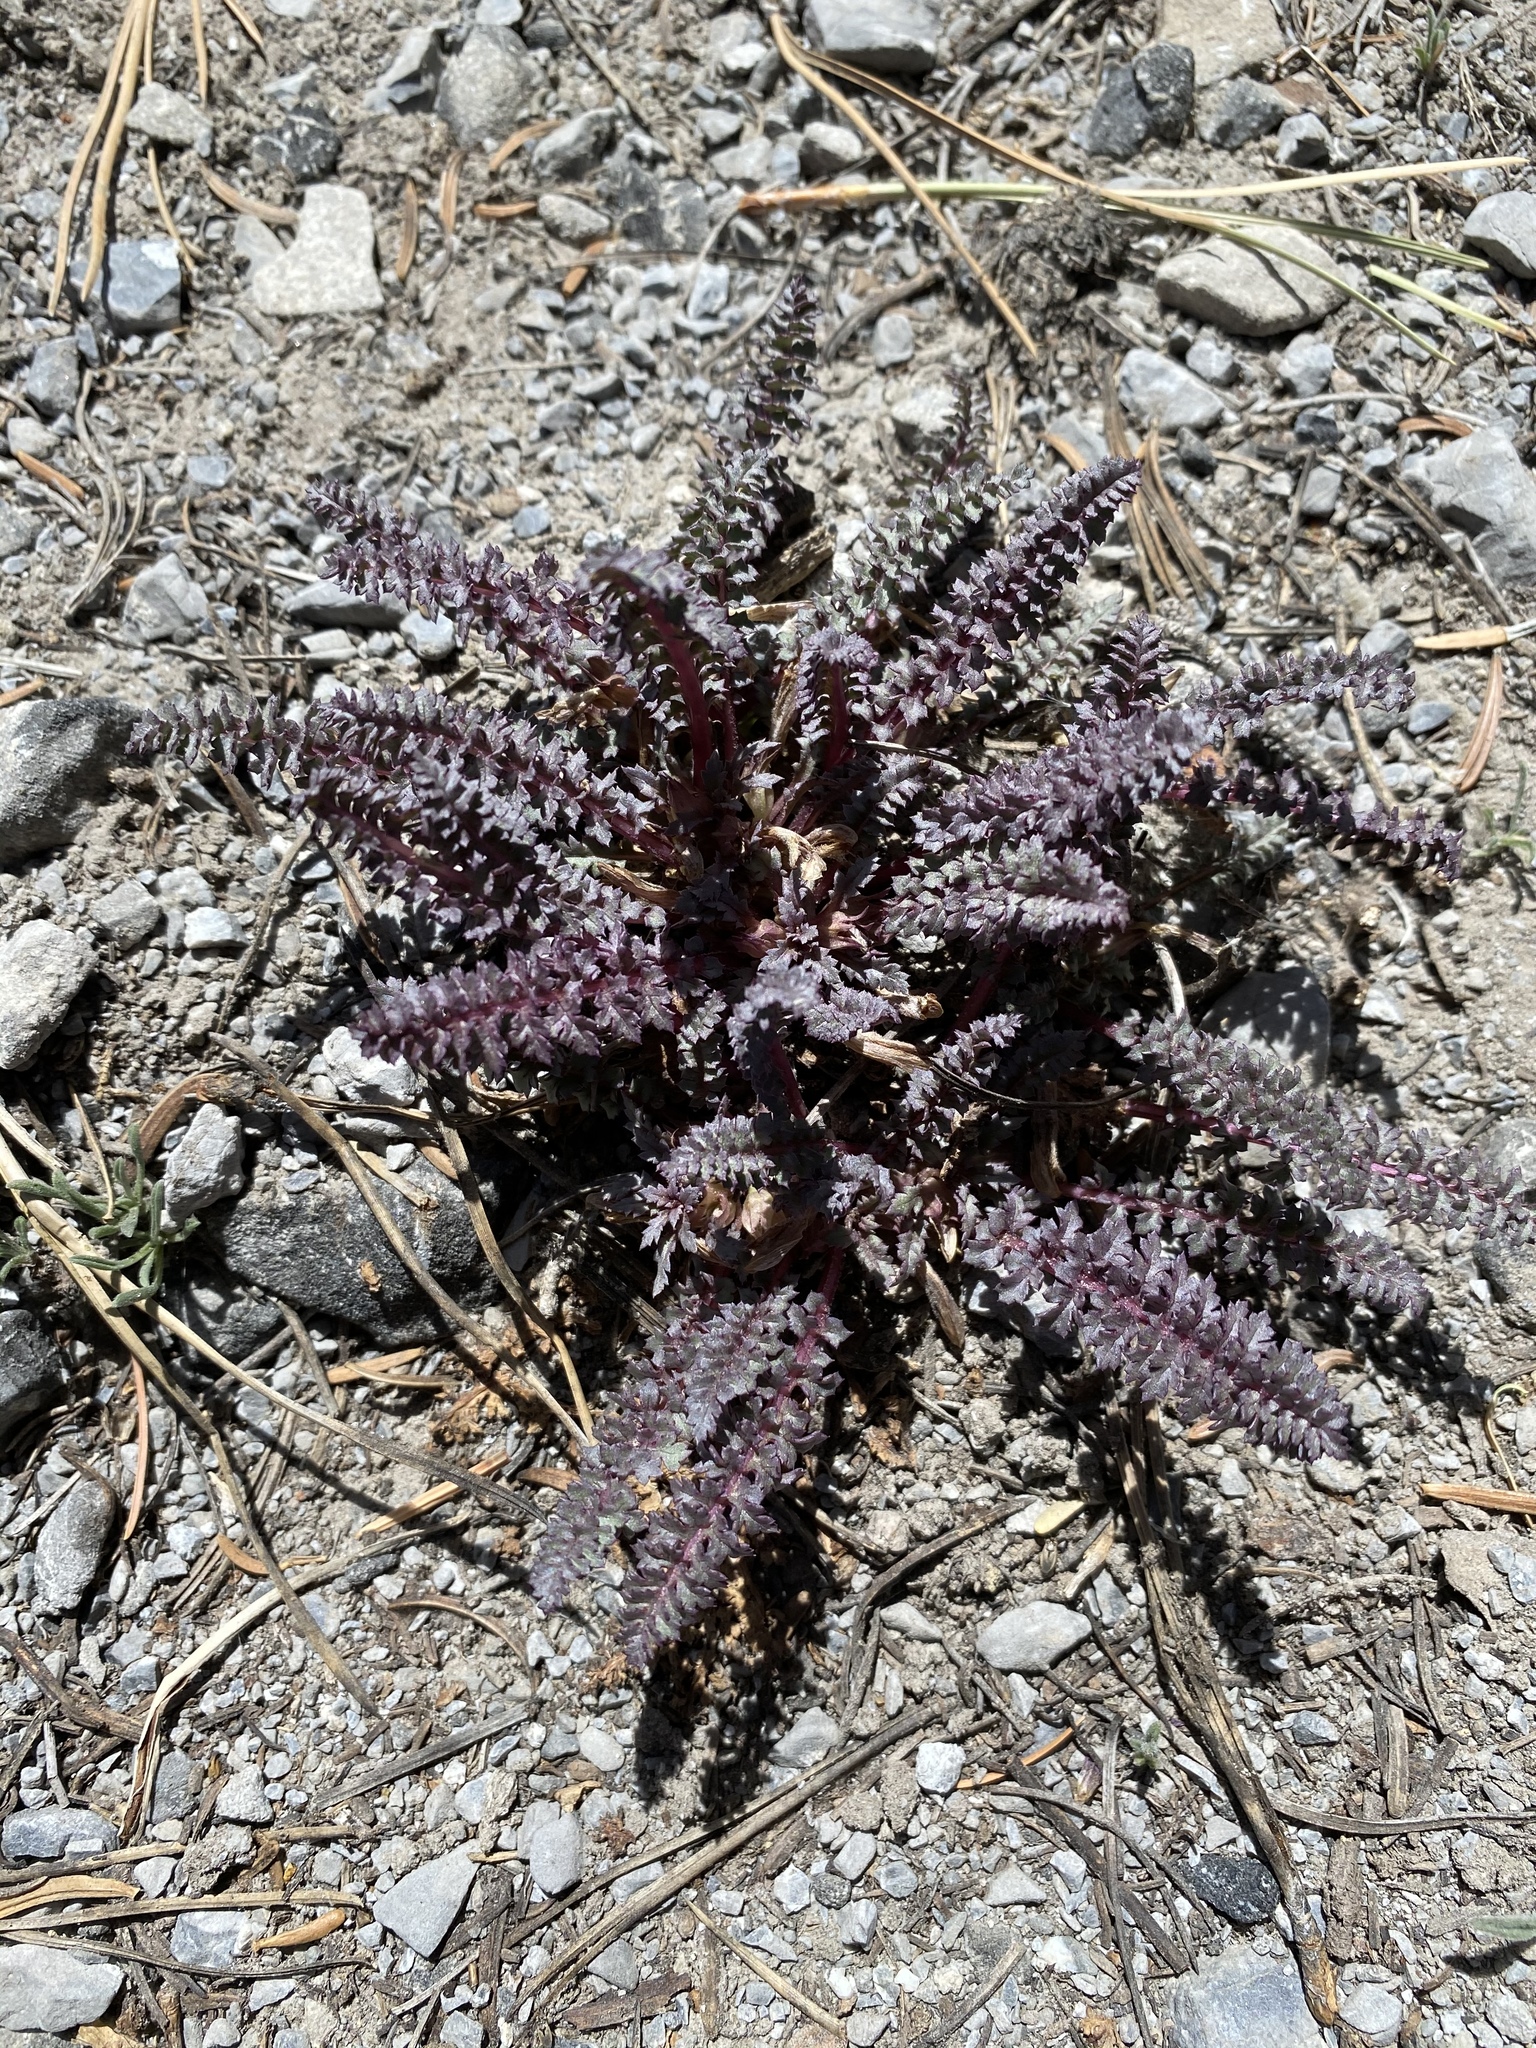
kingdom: Plantae
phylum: Tracheophyta
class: Magnoliopsida
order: Lamiales
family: Orobanchaceae
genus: Pedicularis
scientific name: Pedicularis semibarbata
